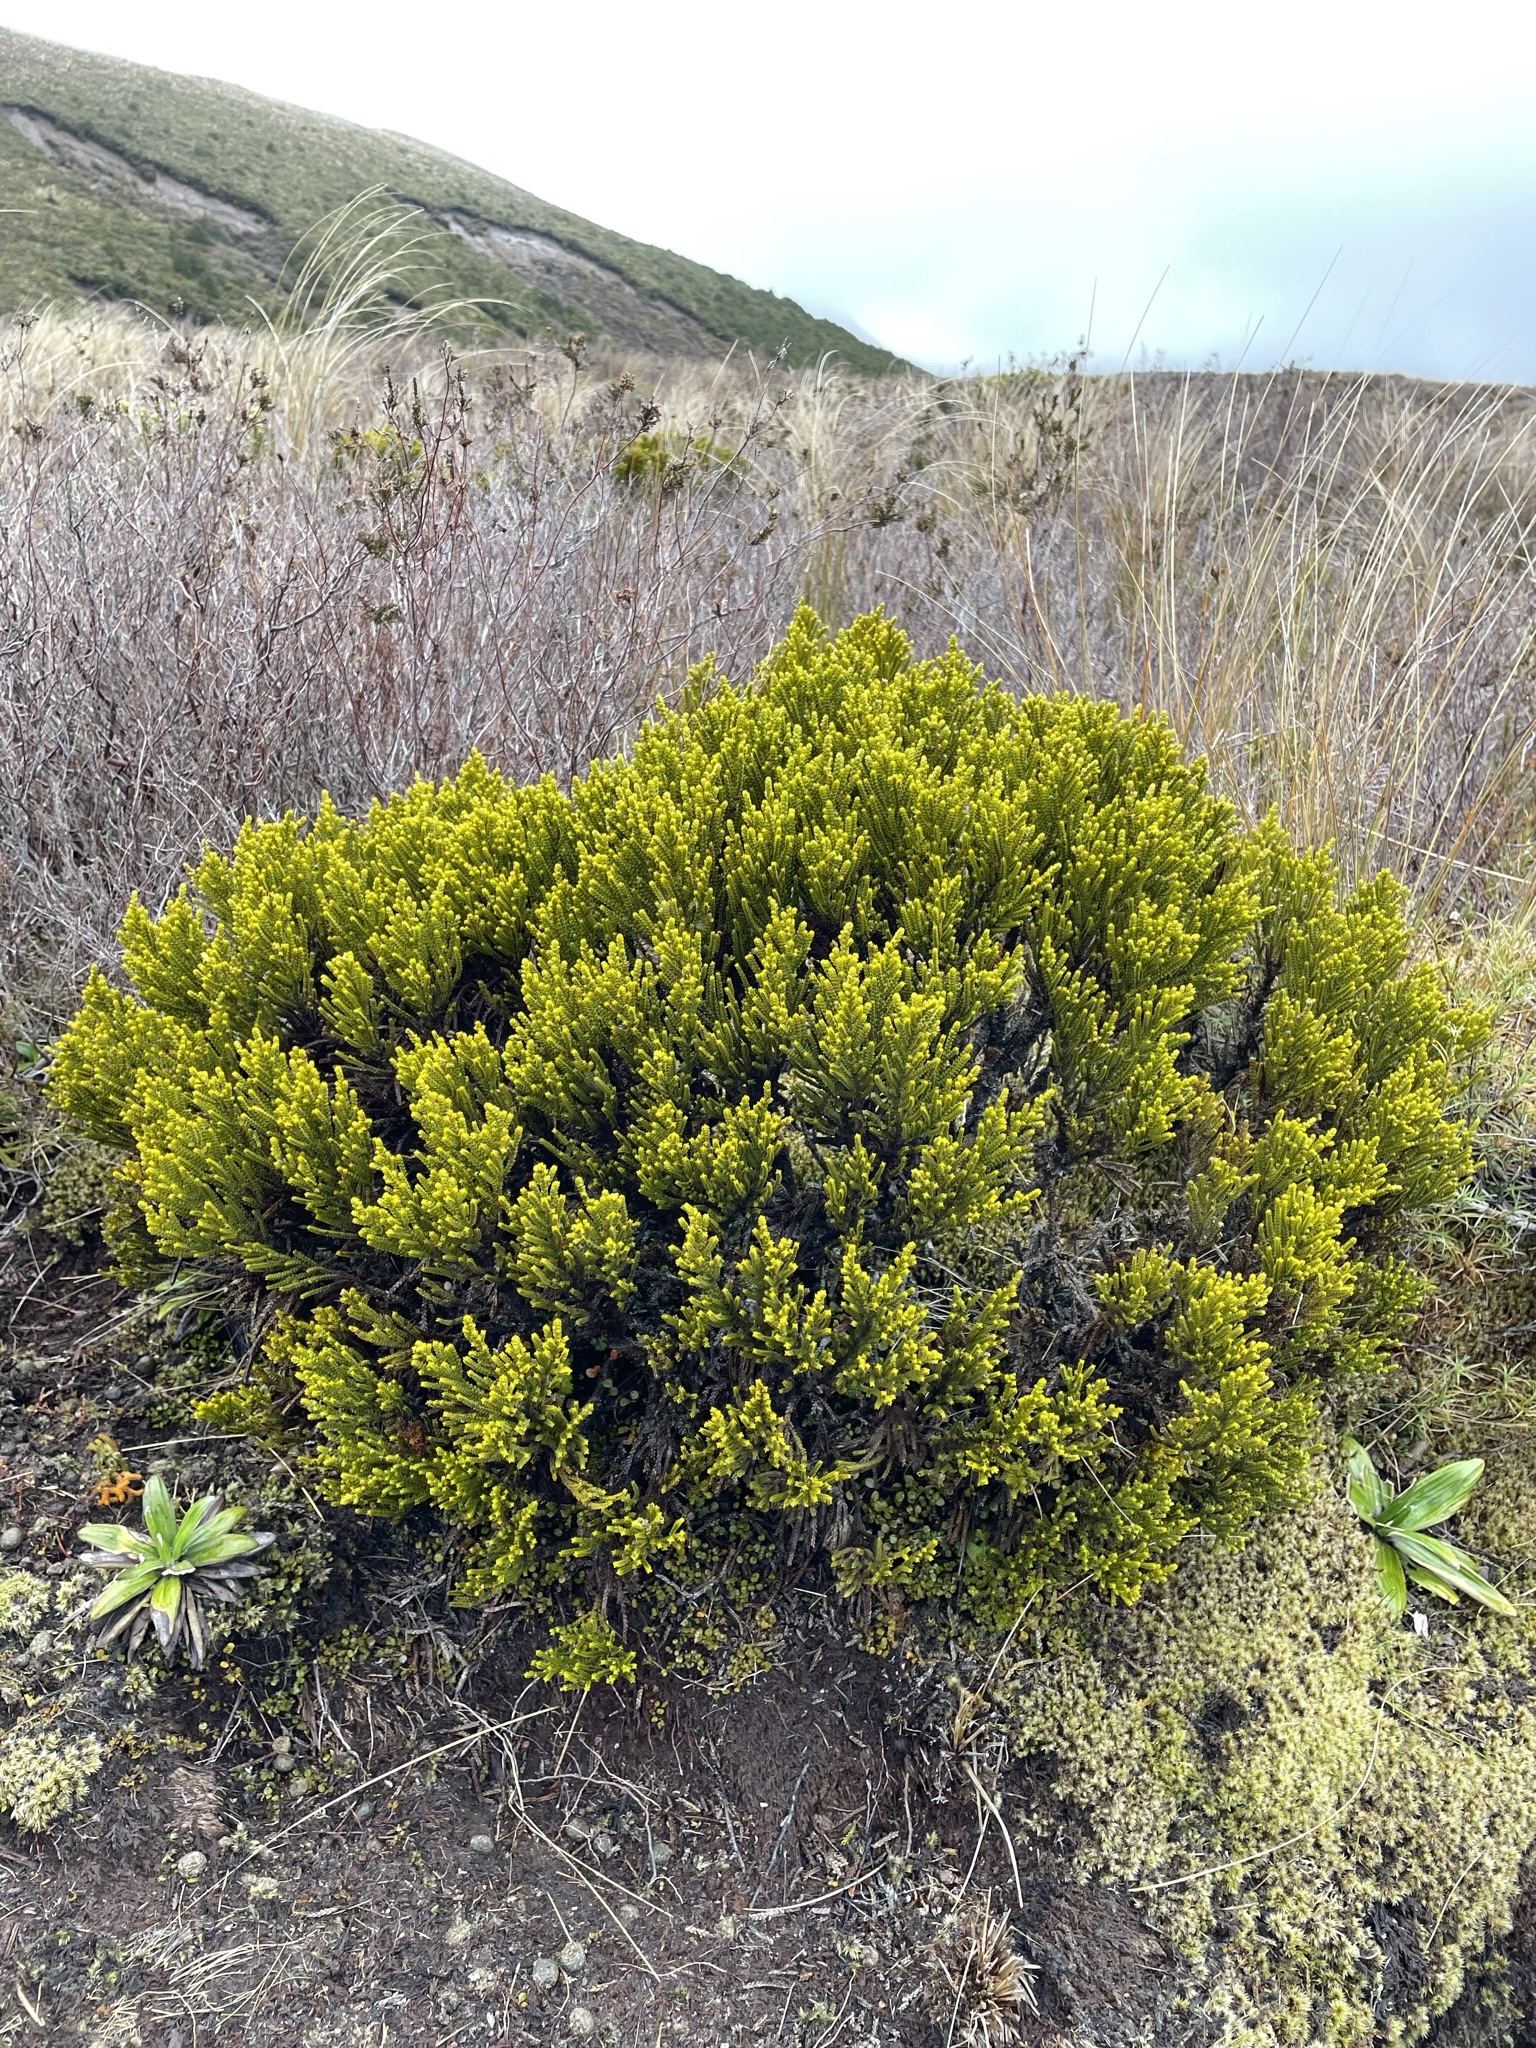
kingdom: Plantae
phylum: Tracheophyta
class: Magnoliopsida
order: Lamiales
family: Plantaginaceae
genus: Veronica
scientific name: Veronica tetragona
